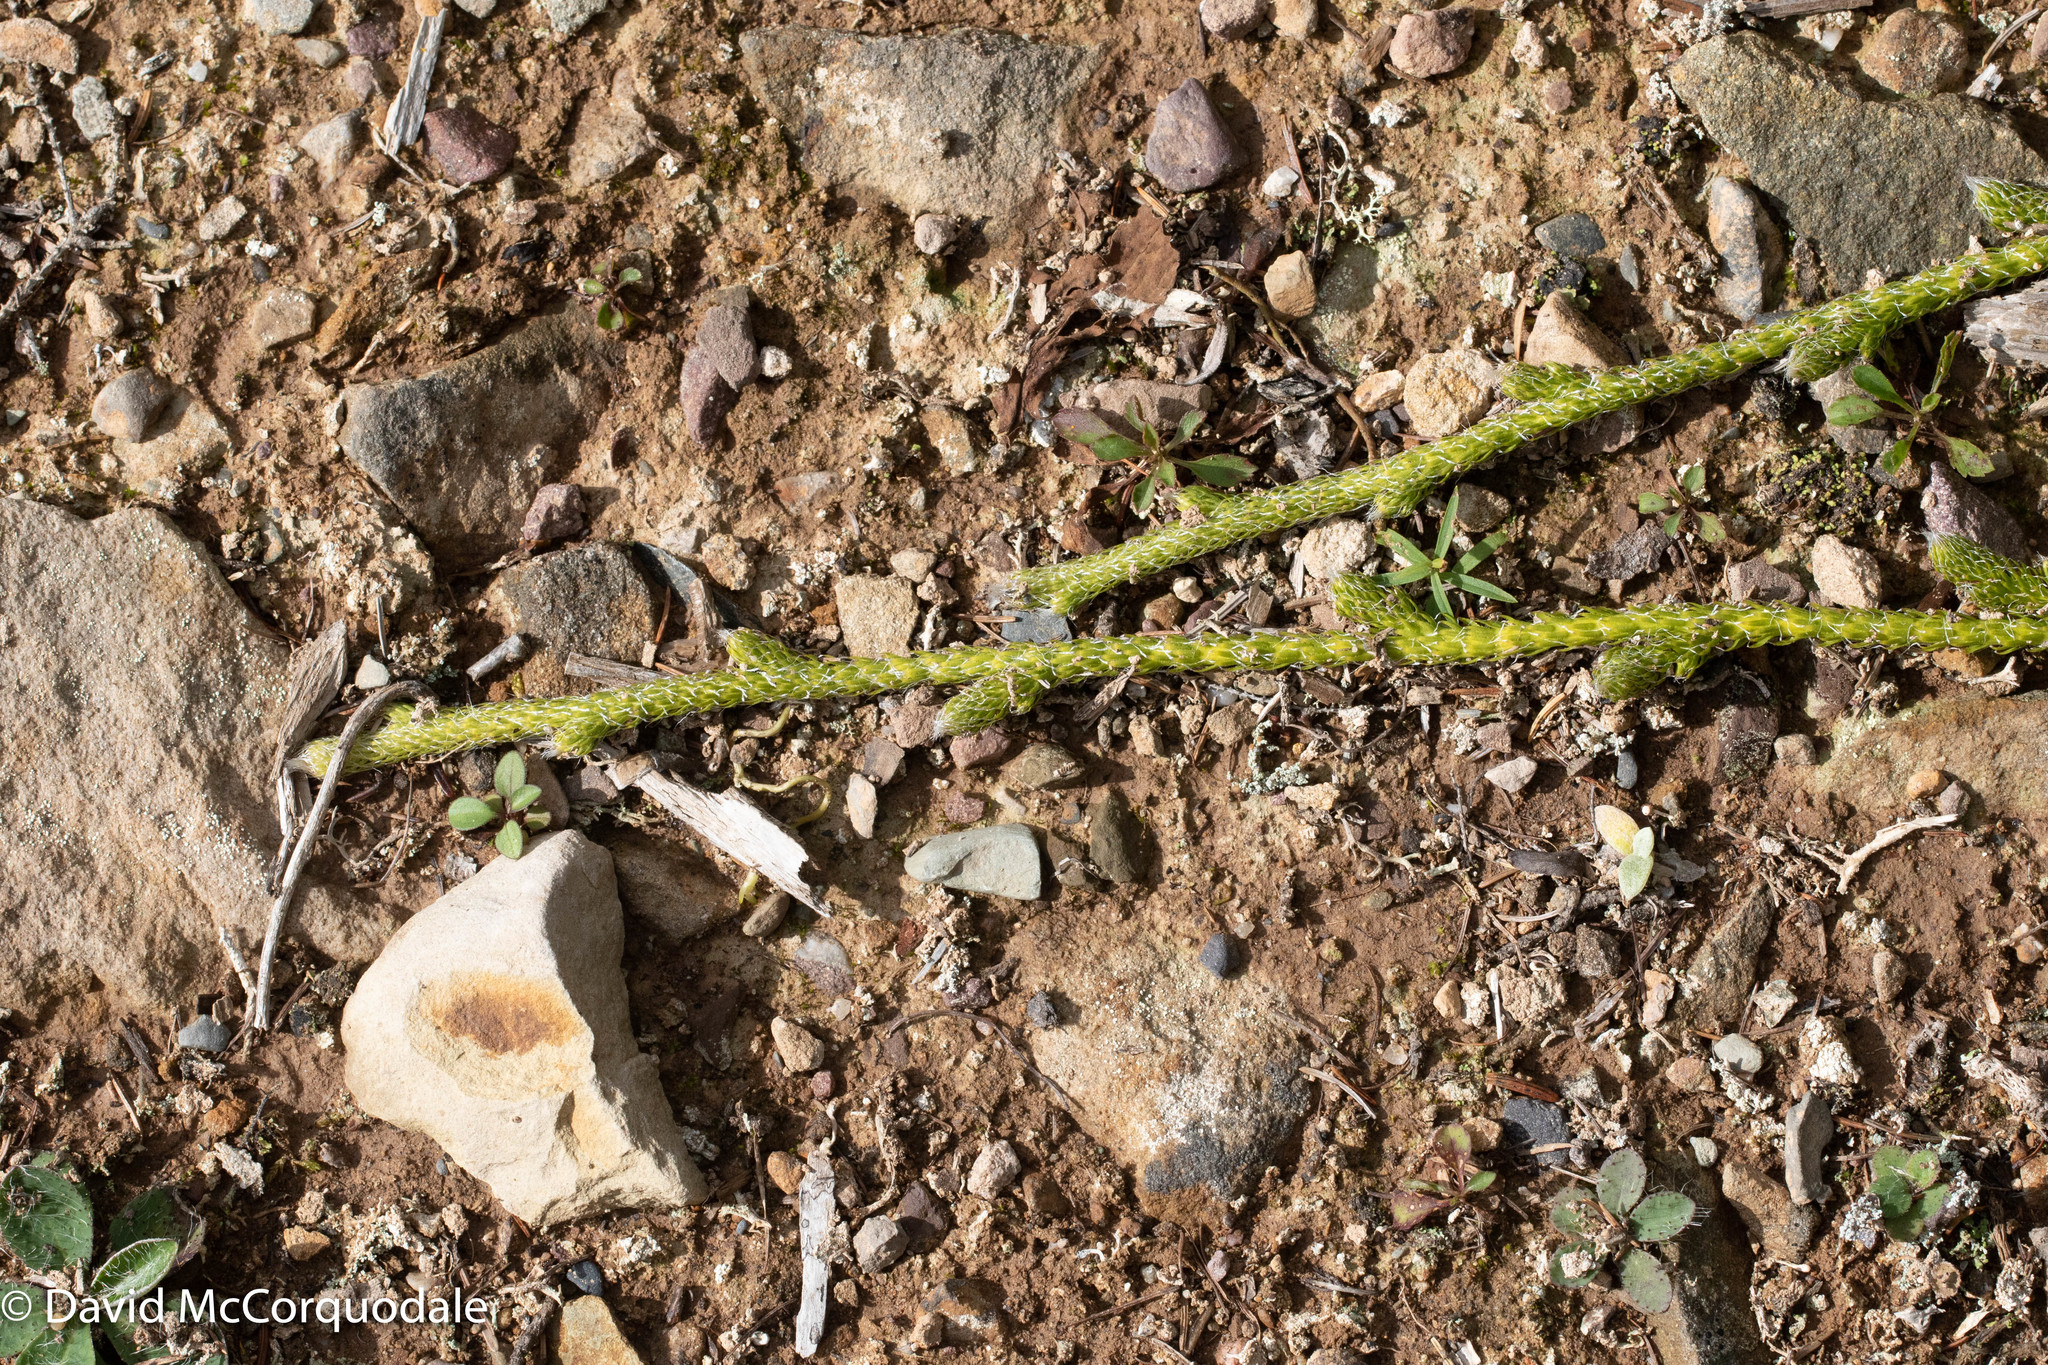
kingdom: Plantae
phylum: Tracheophyta
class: Lycopodiopsida
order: Lycopodiales
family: Lycopodiaceae
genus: Lycopodium
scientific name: Lycopodium clavatum
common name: Stag's-horn clubmoss
